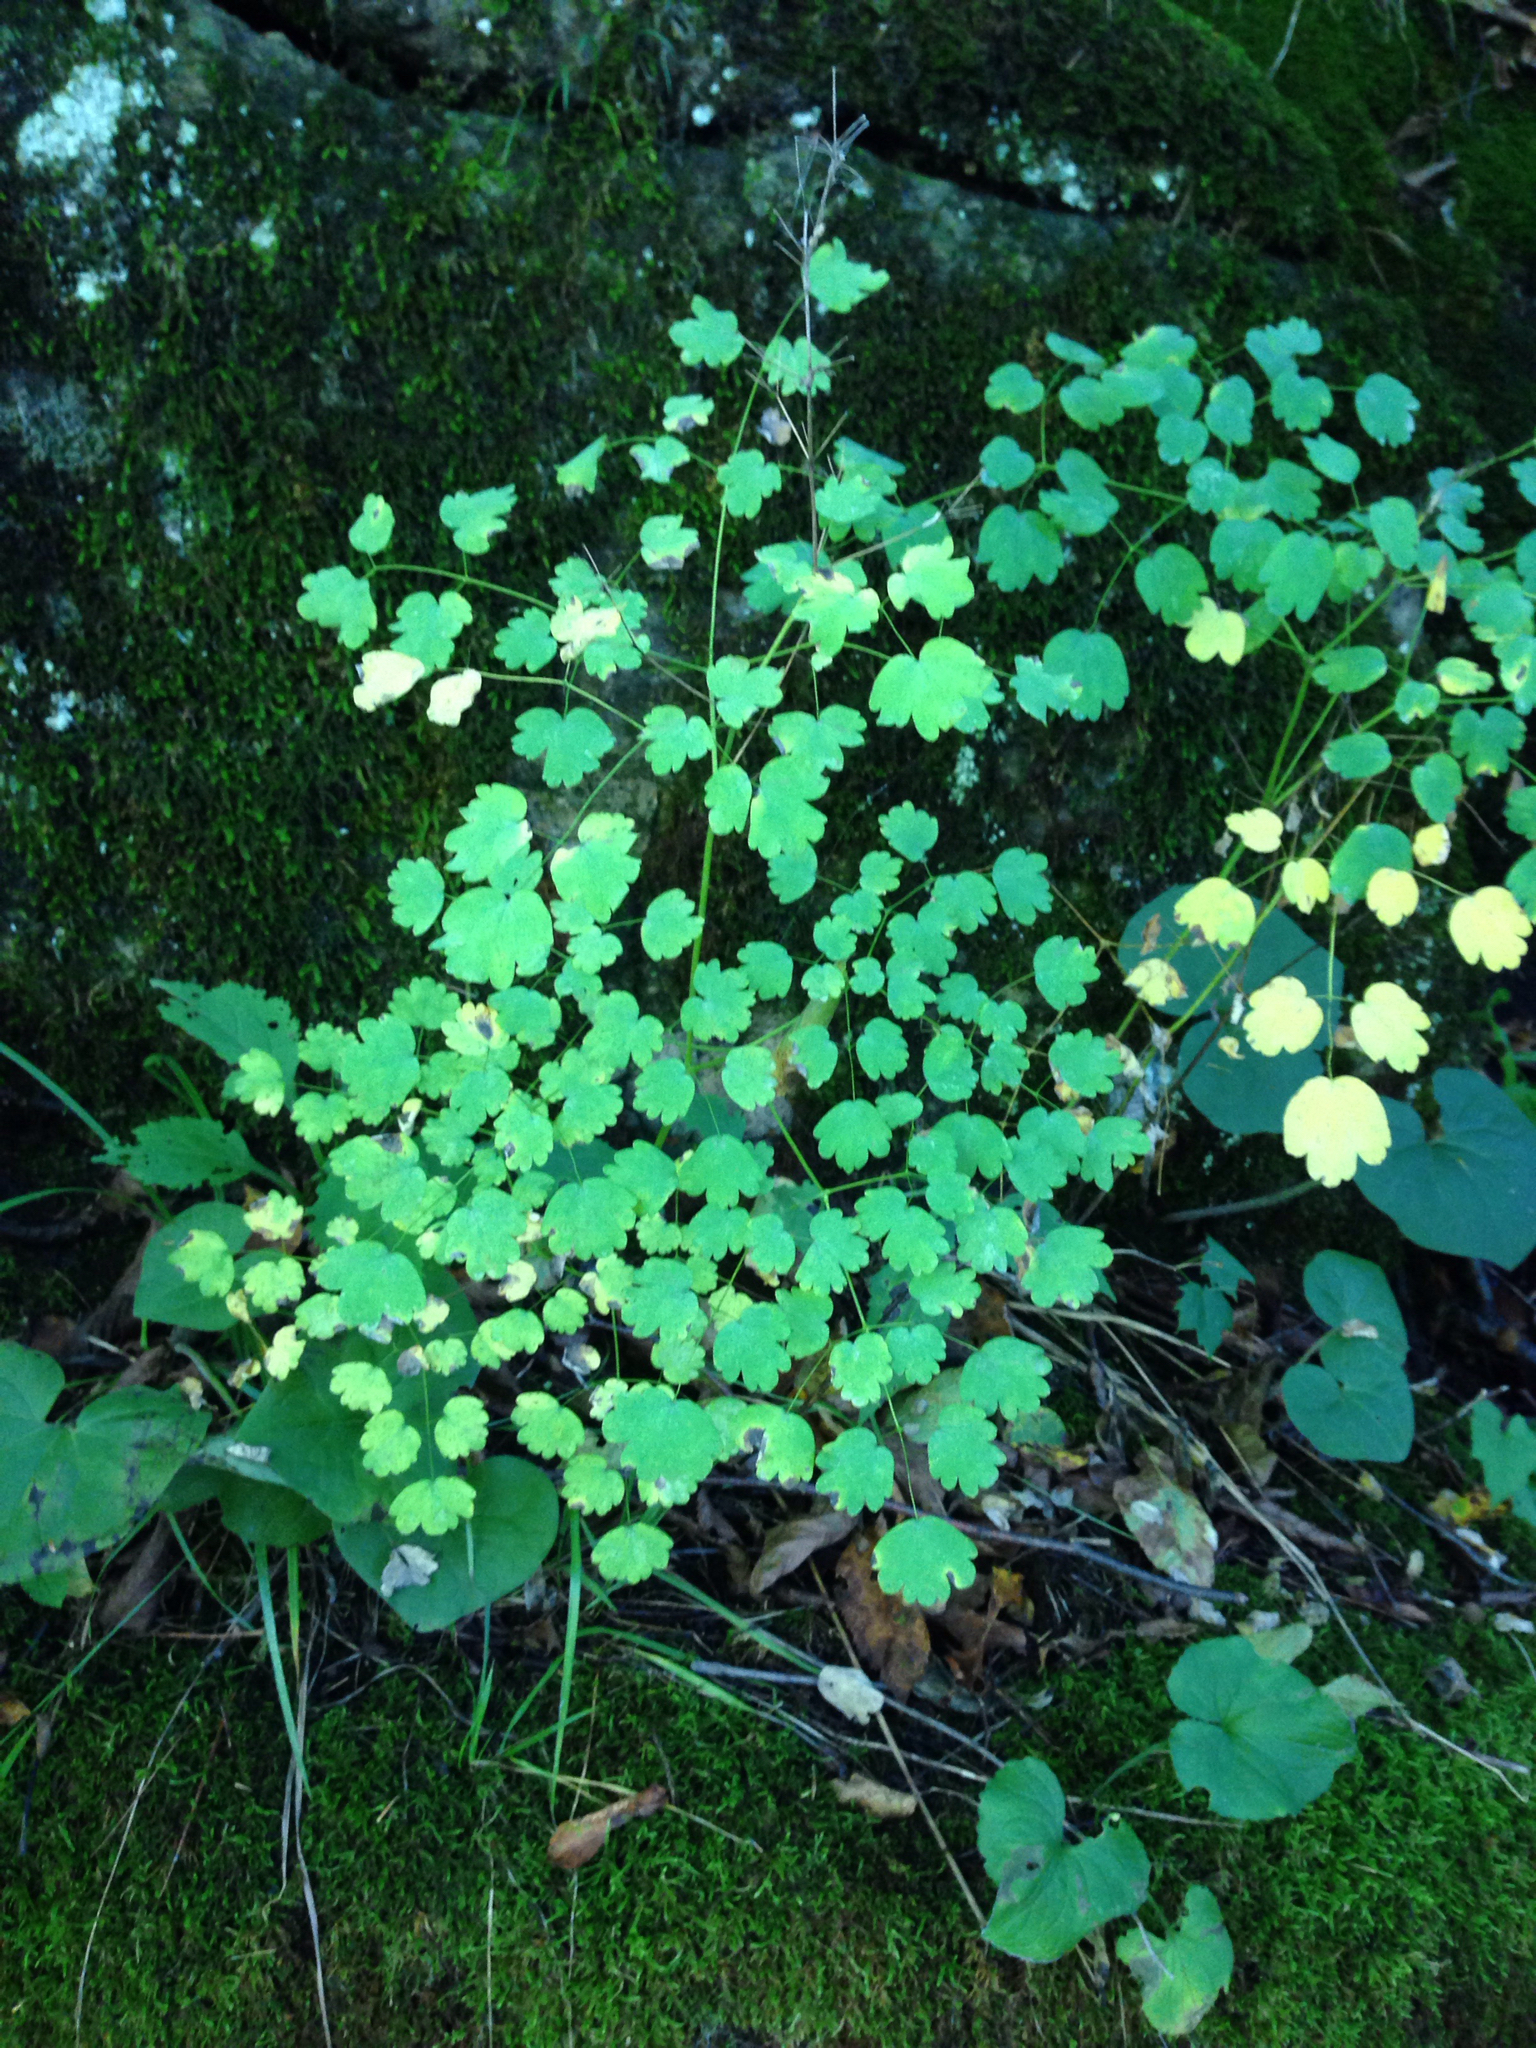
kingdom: Plantae
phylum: Tracheophyta
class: Magnoliopsida
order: Ranunculales
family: Ranunculaceae
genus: Thalictrum
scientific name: Thalictrum dioicum
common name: Early meadow-rue
